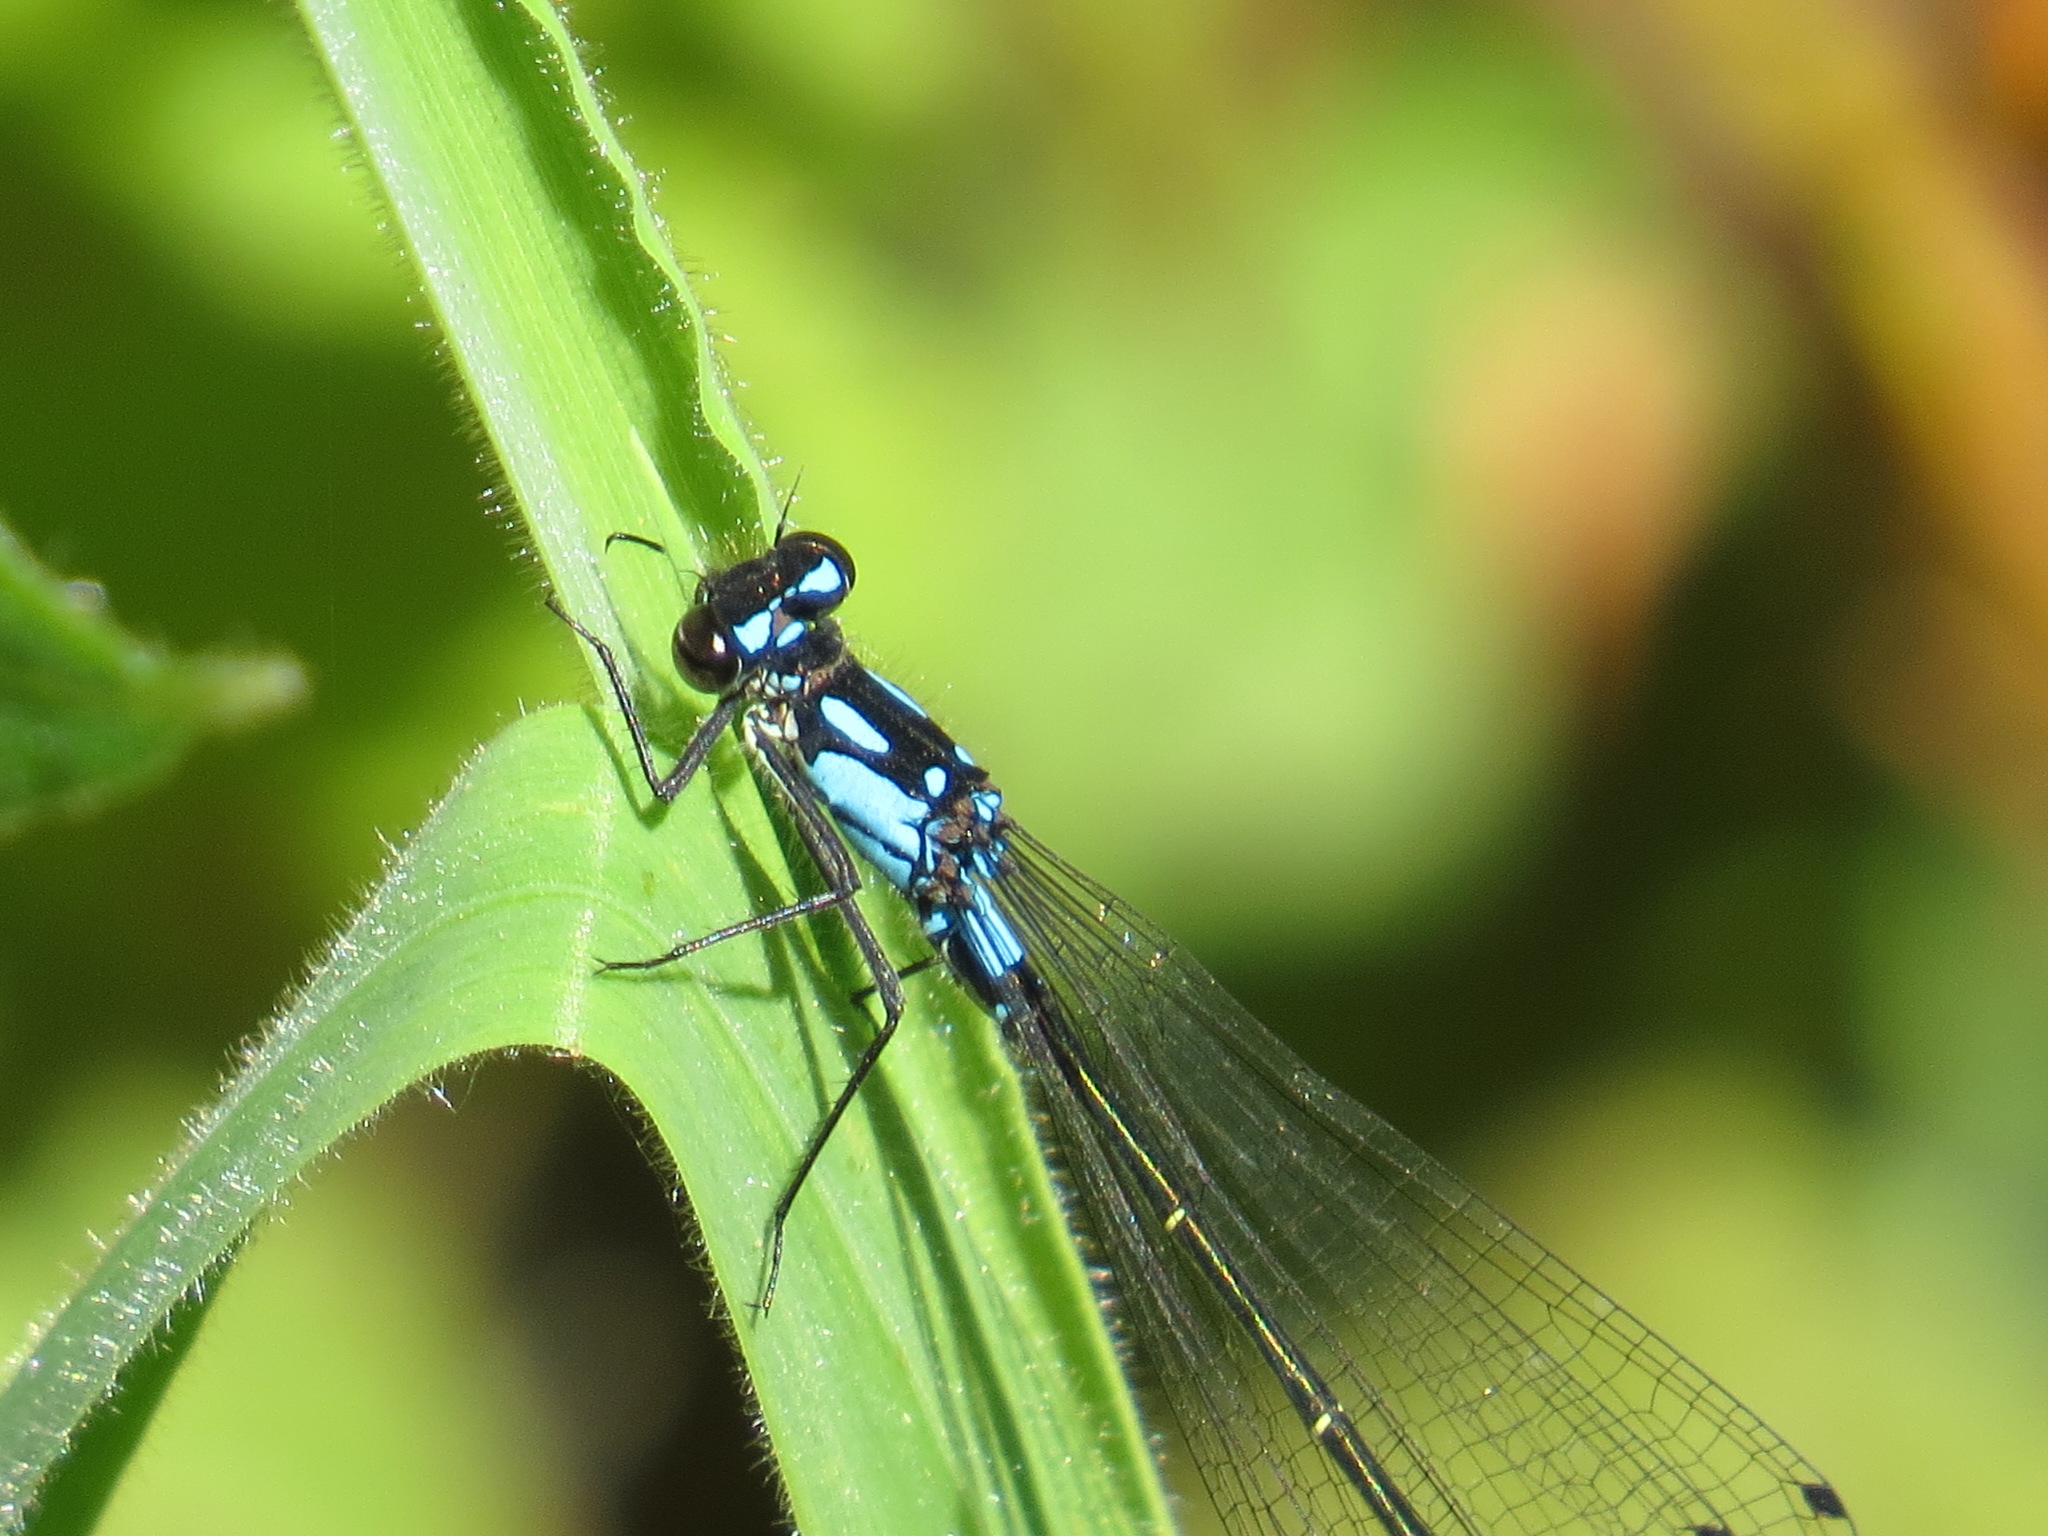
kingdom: Animalia
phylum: Arthropoda
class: Insecta
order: Odonata
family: Coenagrionidae
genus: Zoniagrion
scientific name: Zoniagrion exclamationis
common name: Exclamation damsel
